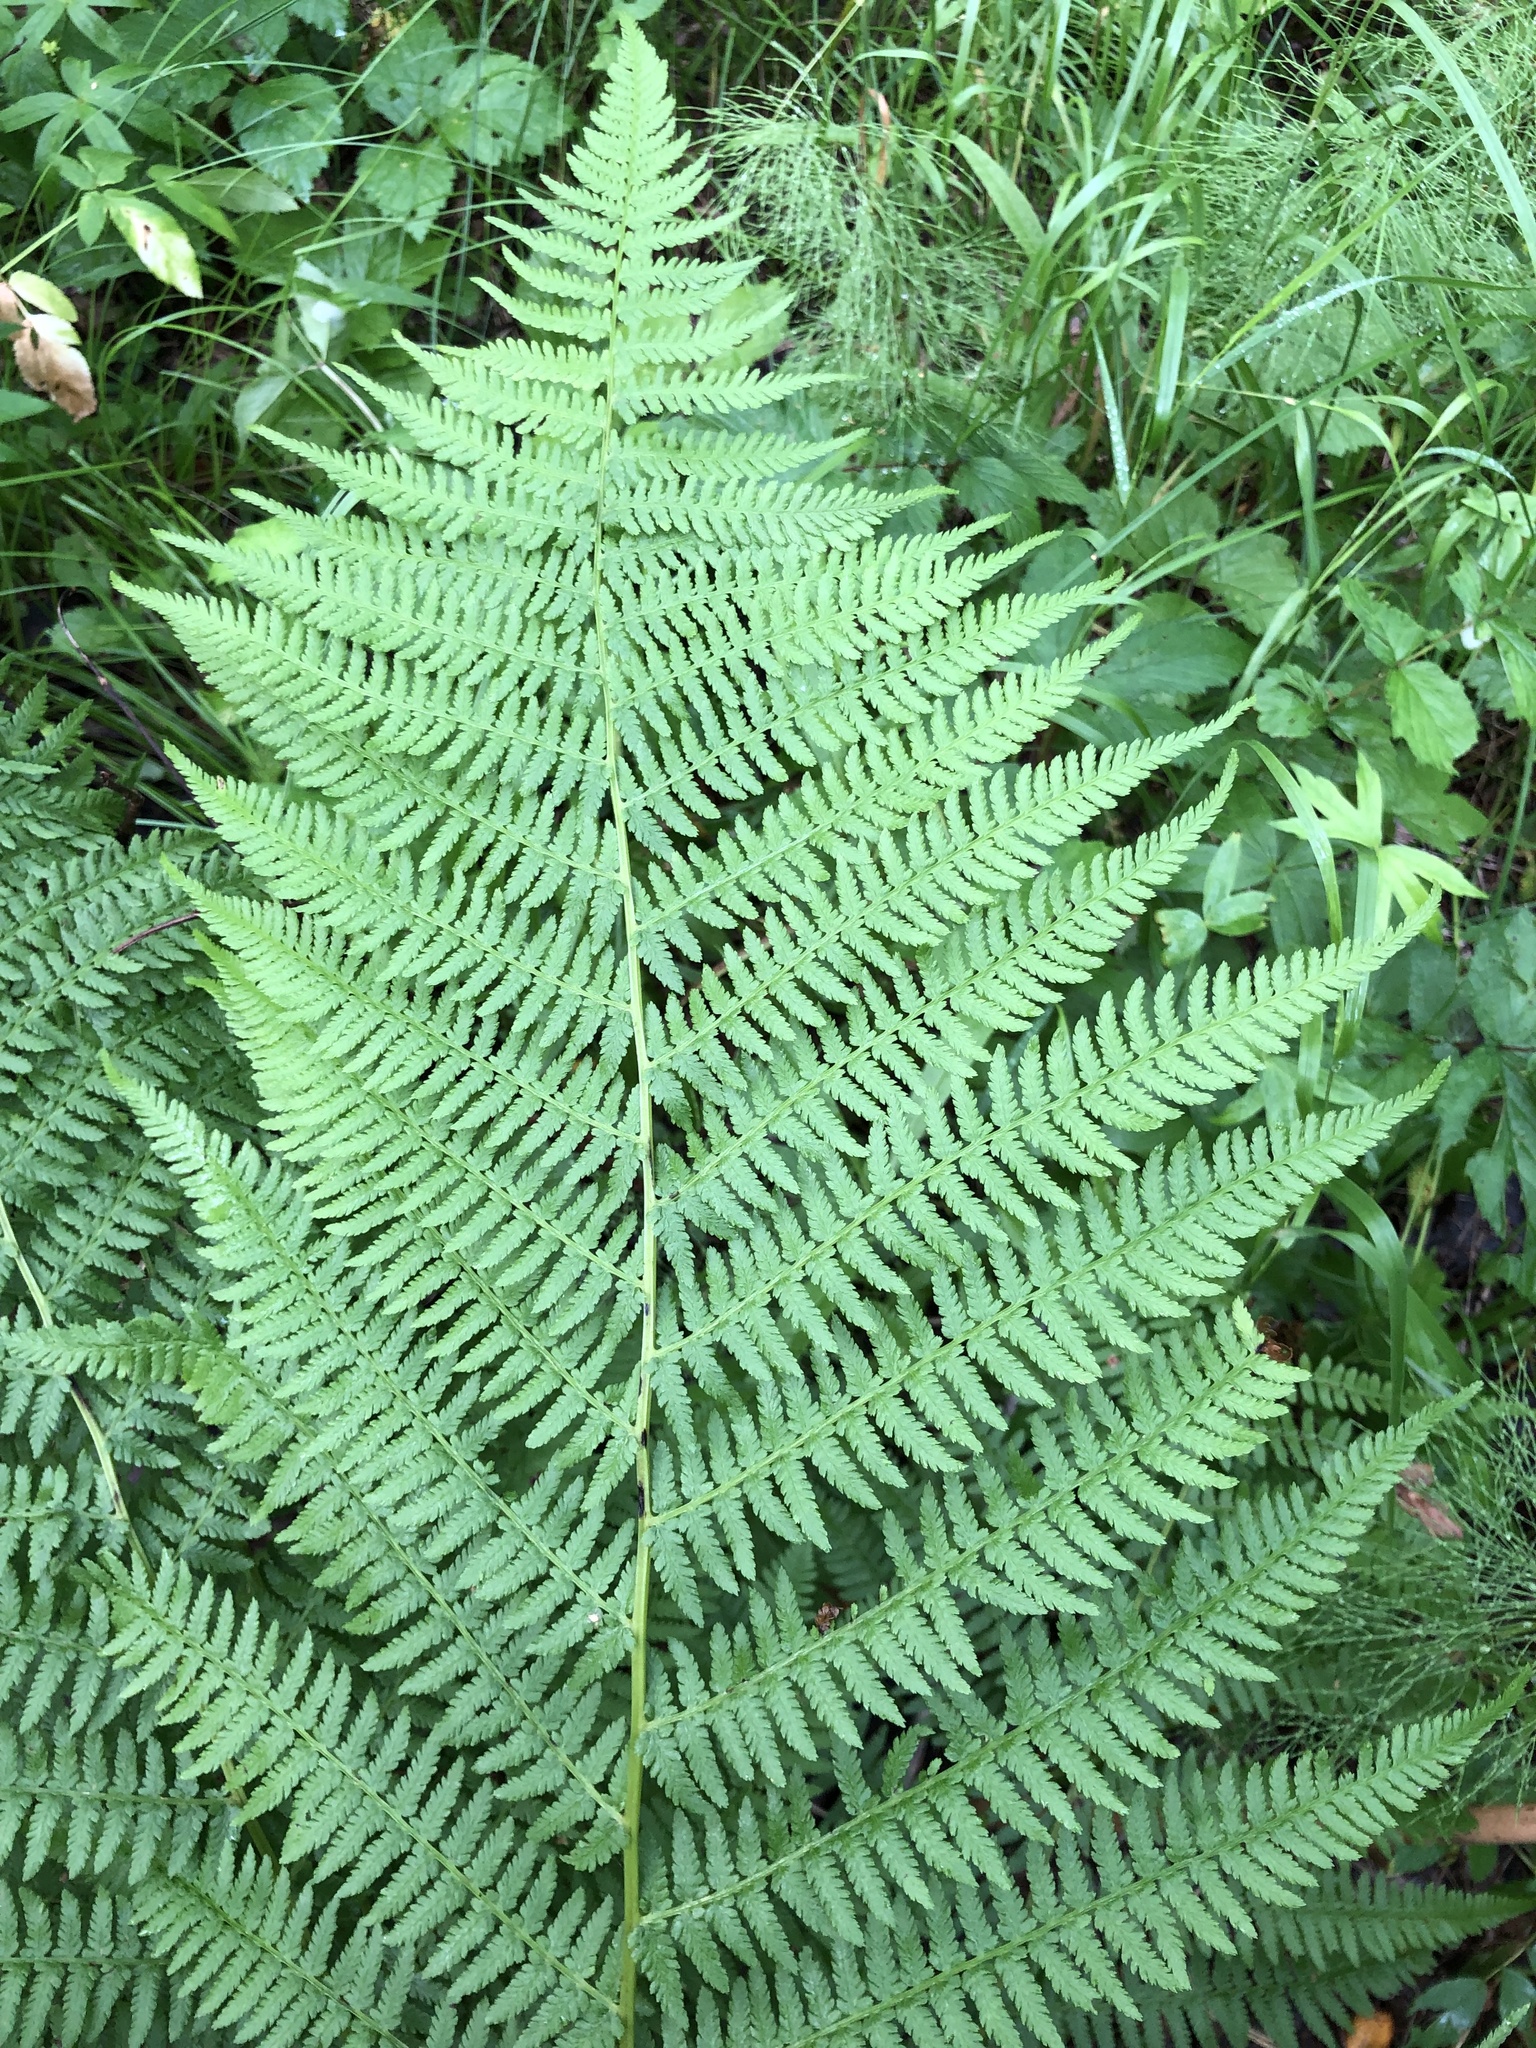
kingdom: Plantae
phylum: Tracheophyta
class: Polypodiopsida
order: Polypodiales
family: Athyriaceae
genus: Athyrium
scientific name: Athyrium filix-femina
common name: Lady fern
